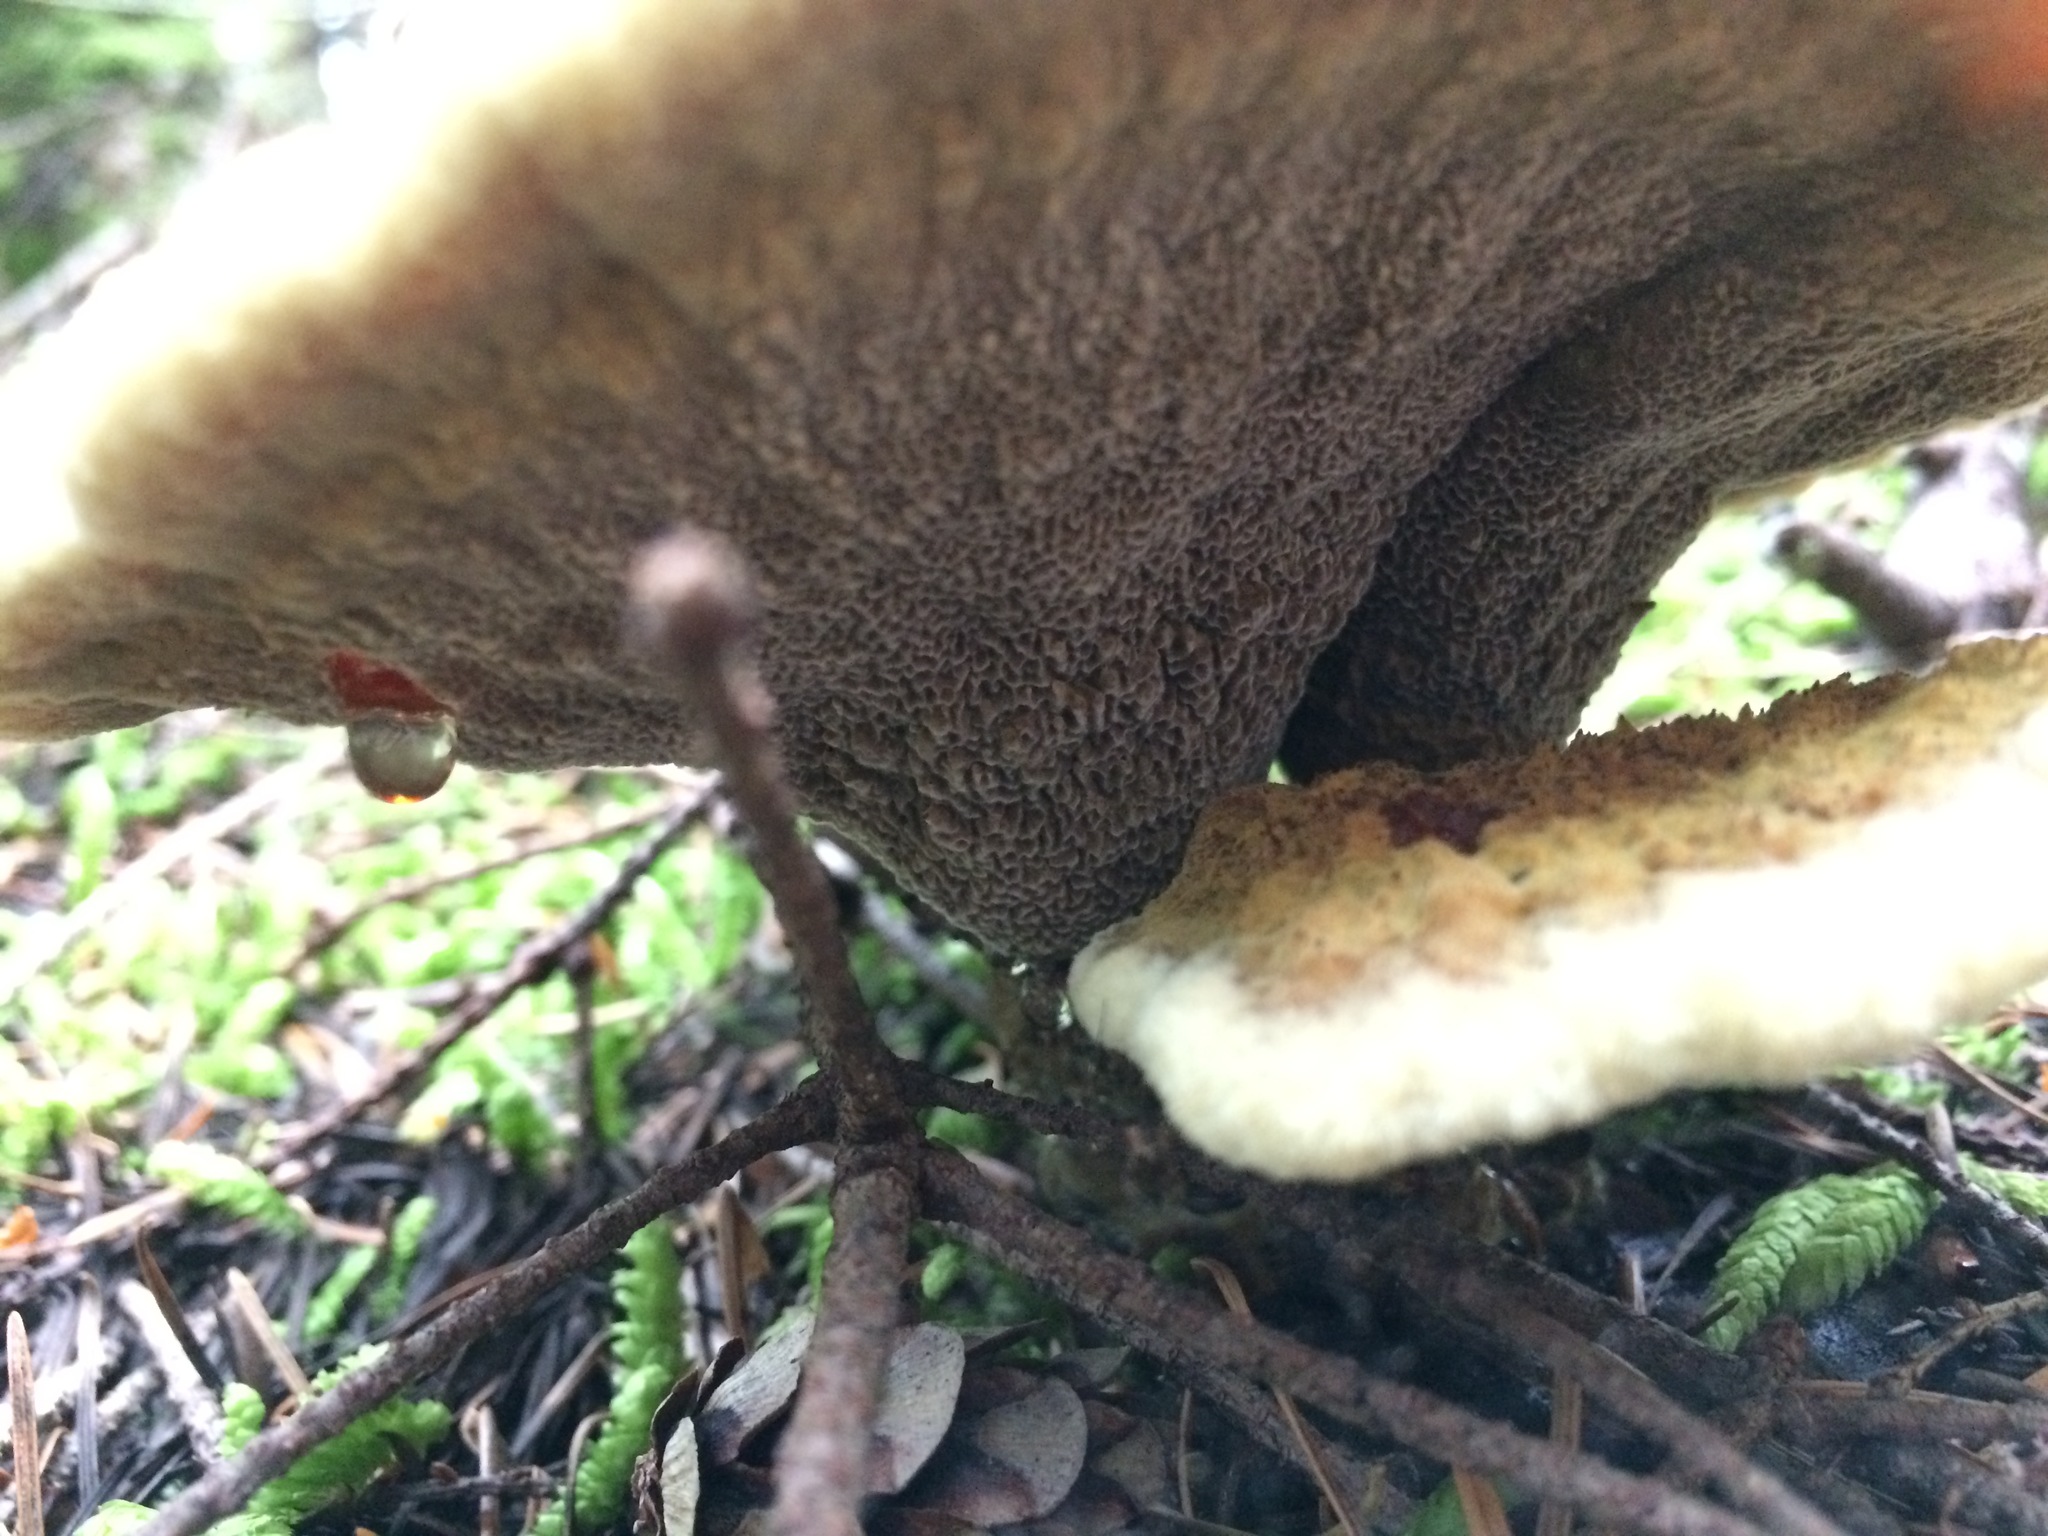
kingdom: Fungi
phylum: Basidiomycota
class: Agaricomycetes
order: Polyporales
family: Laetiporaceae
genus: Phaeolus
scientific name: Phaeolus schweinitzii
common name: Dyer's mazegill
